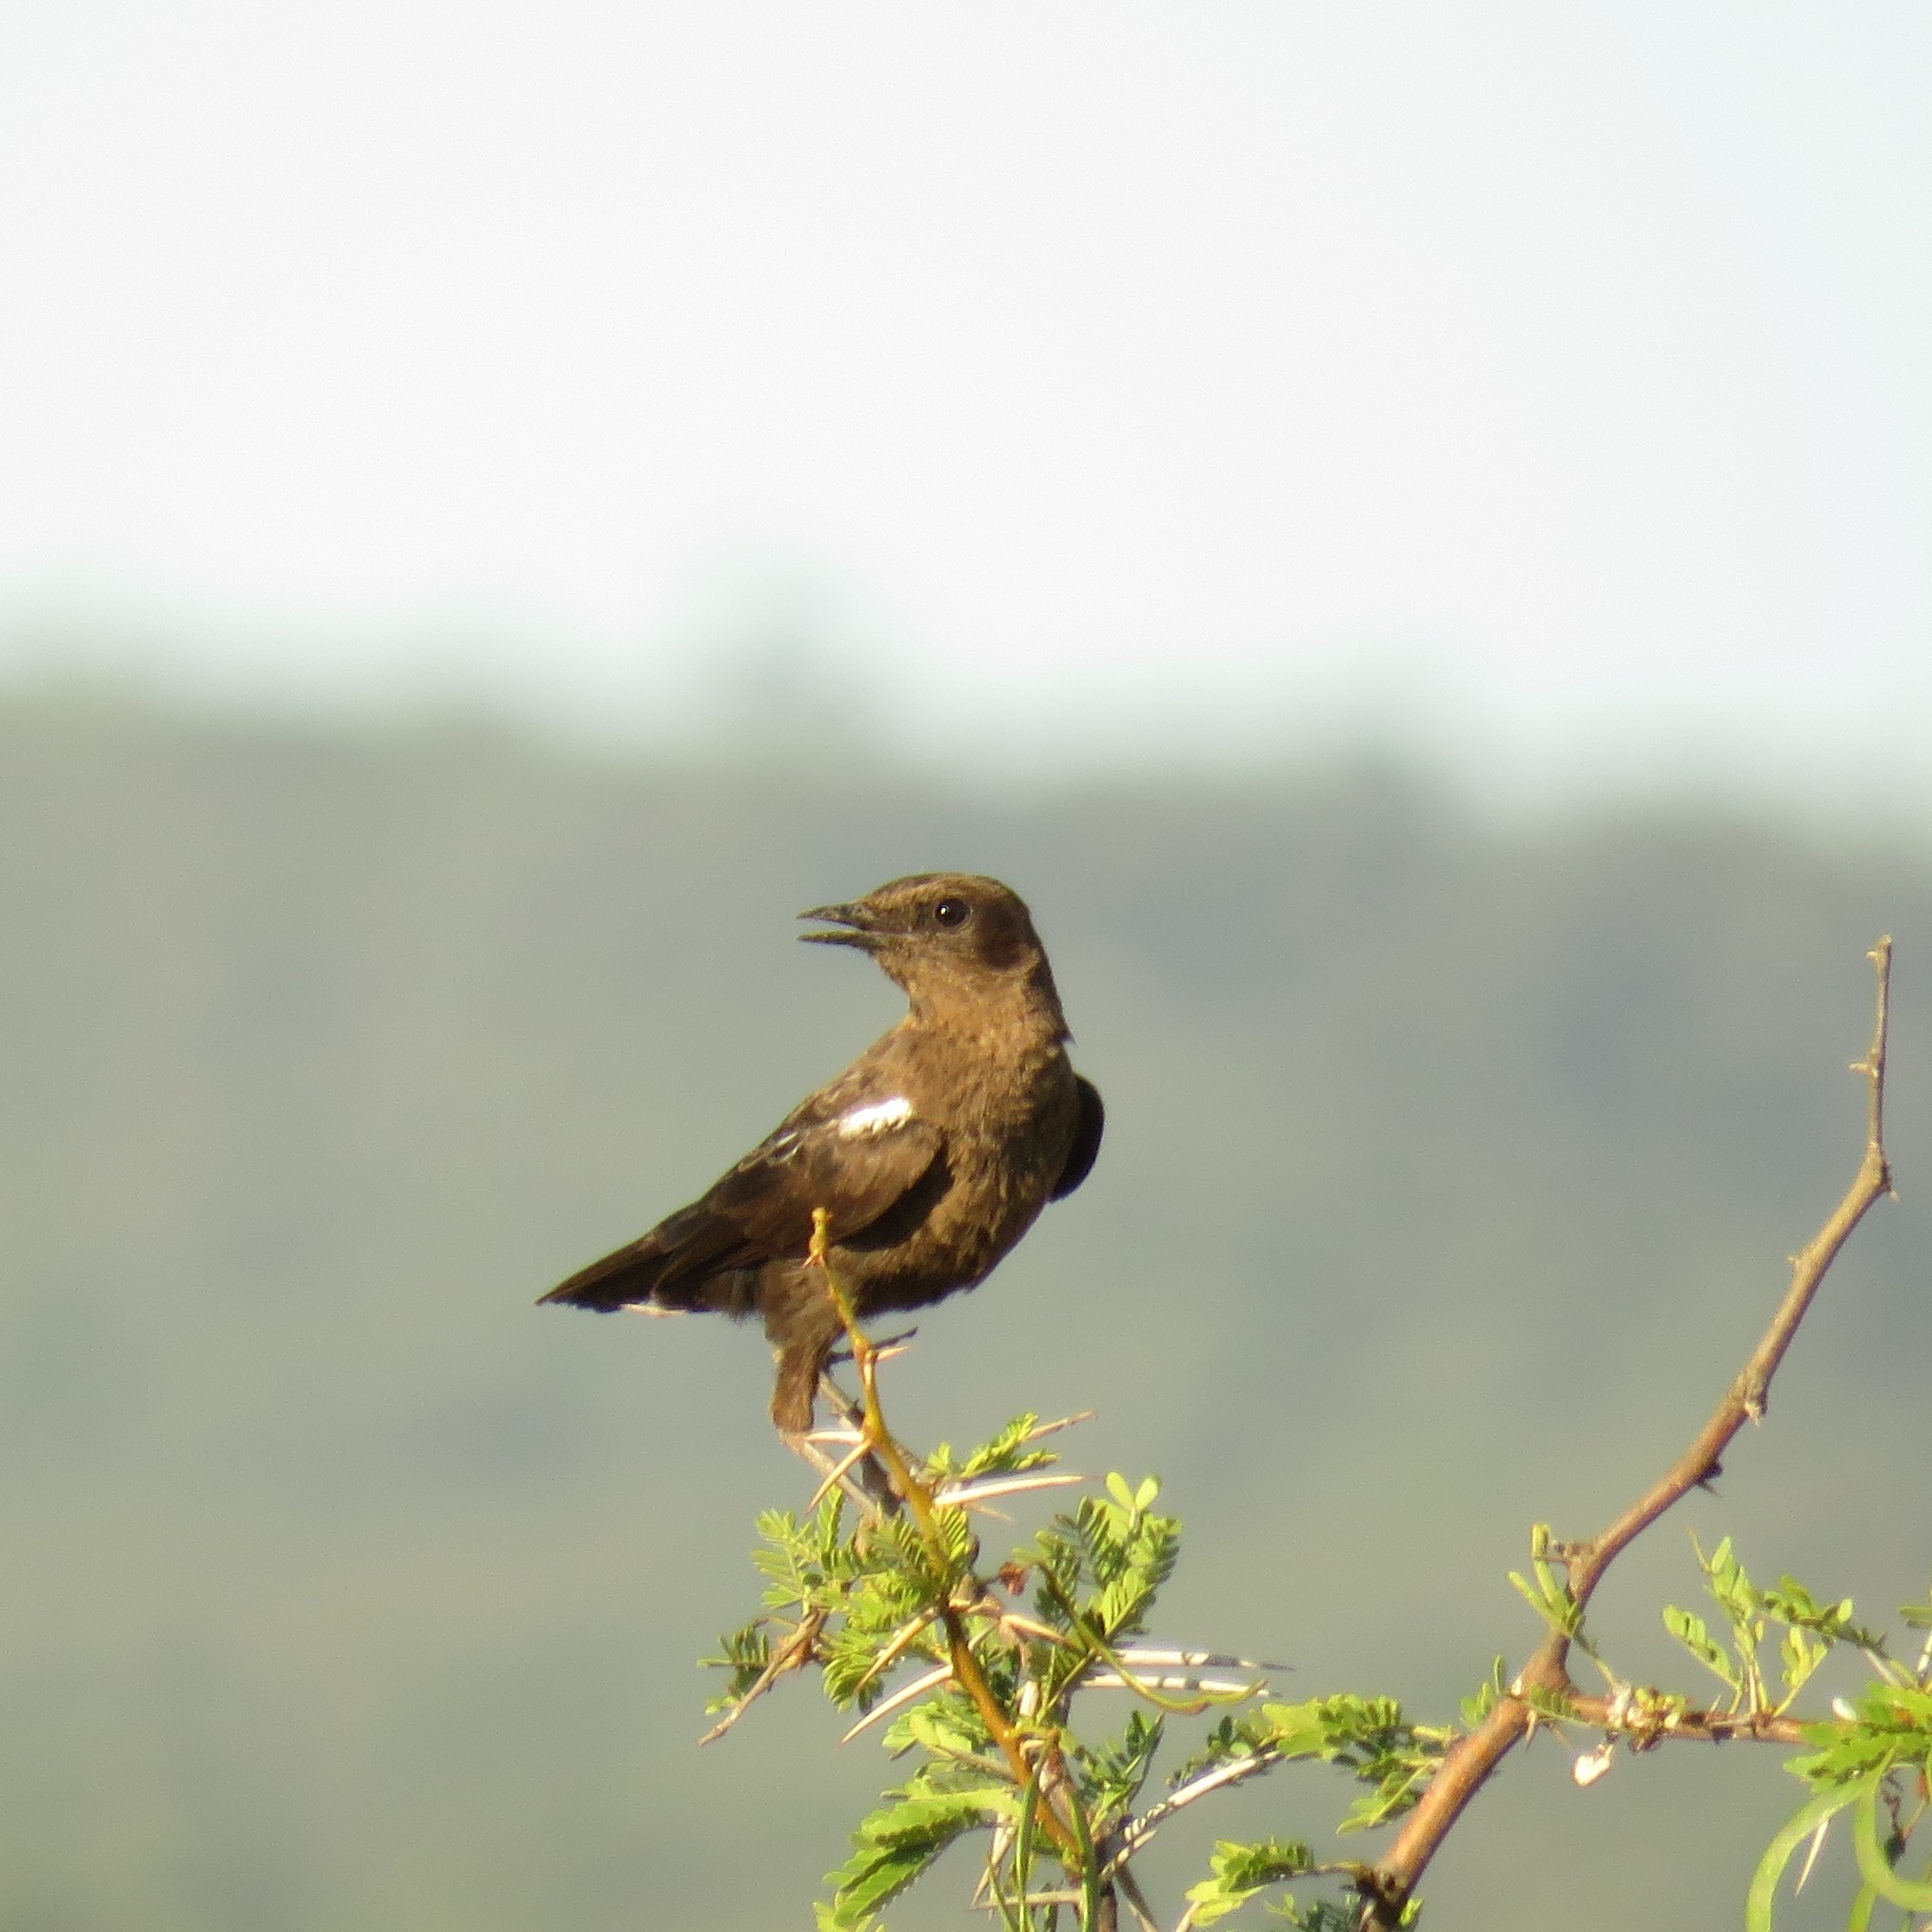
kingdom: Animalia
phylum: Chordata
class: Aves
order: Passeriformes
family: Muscicapidae
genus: Myrmecocichla
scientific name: Myrmecocichla formicivora
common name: Ant-eating chat
